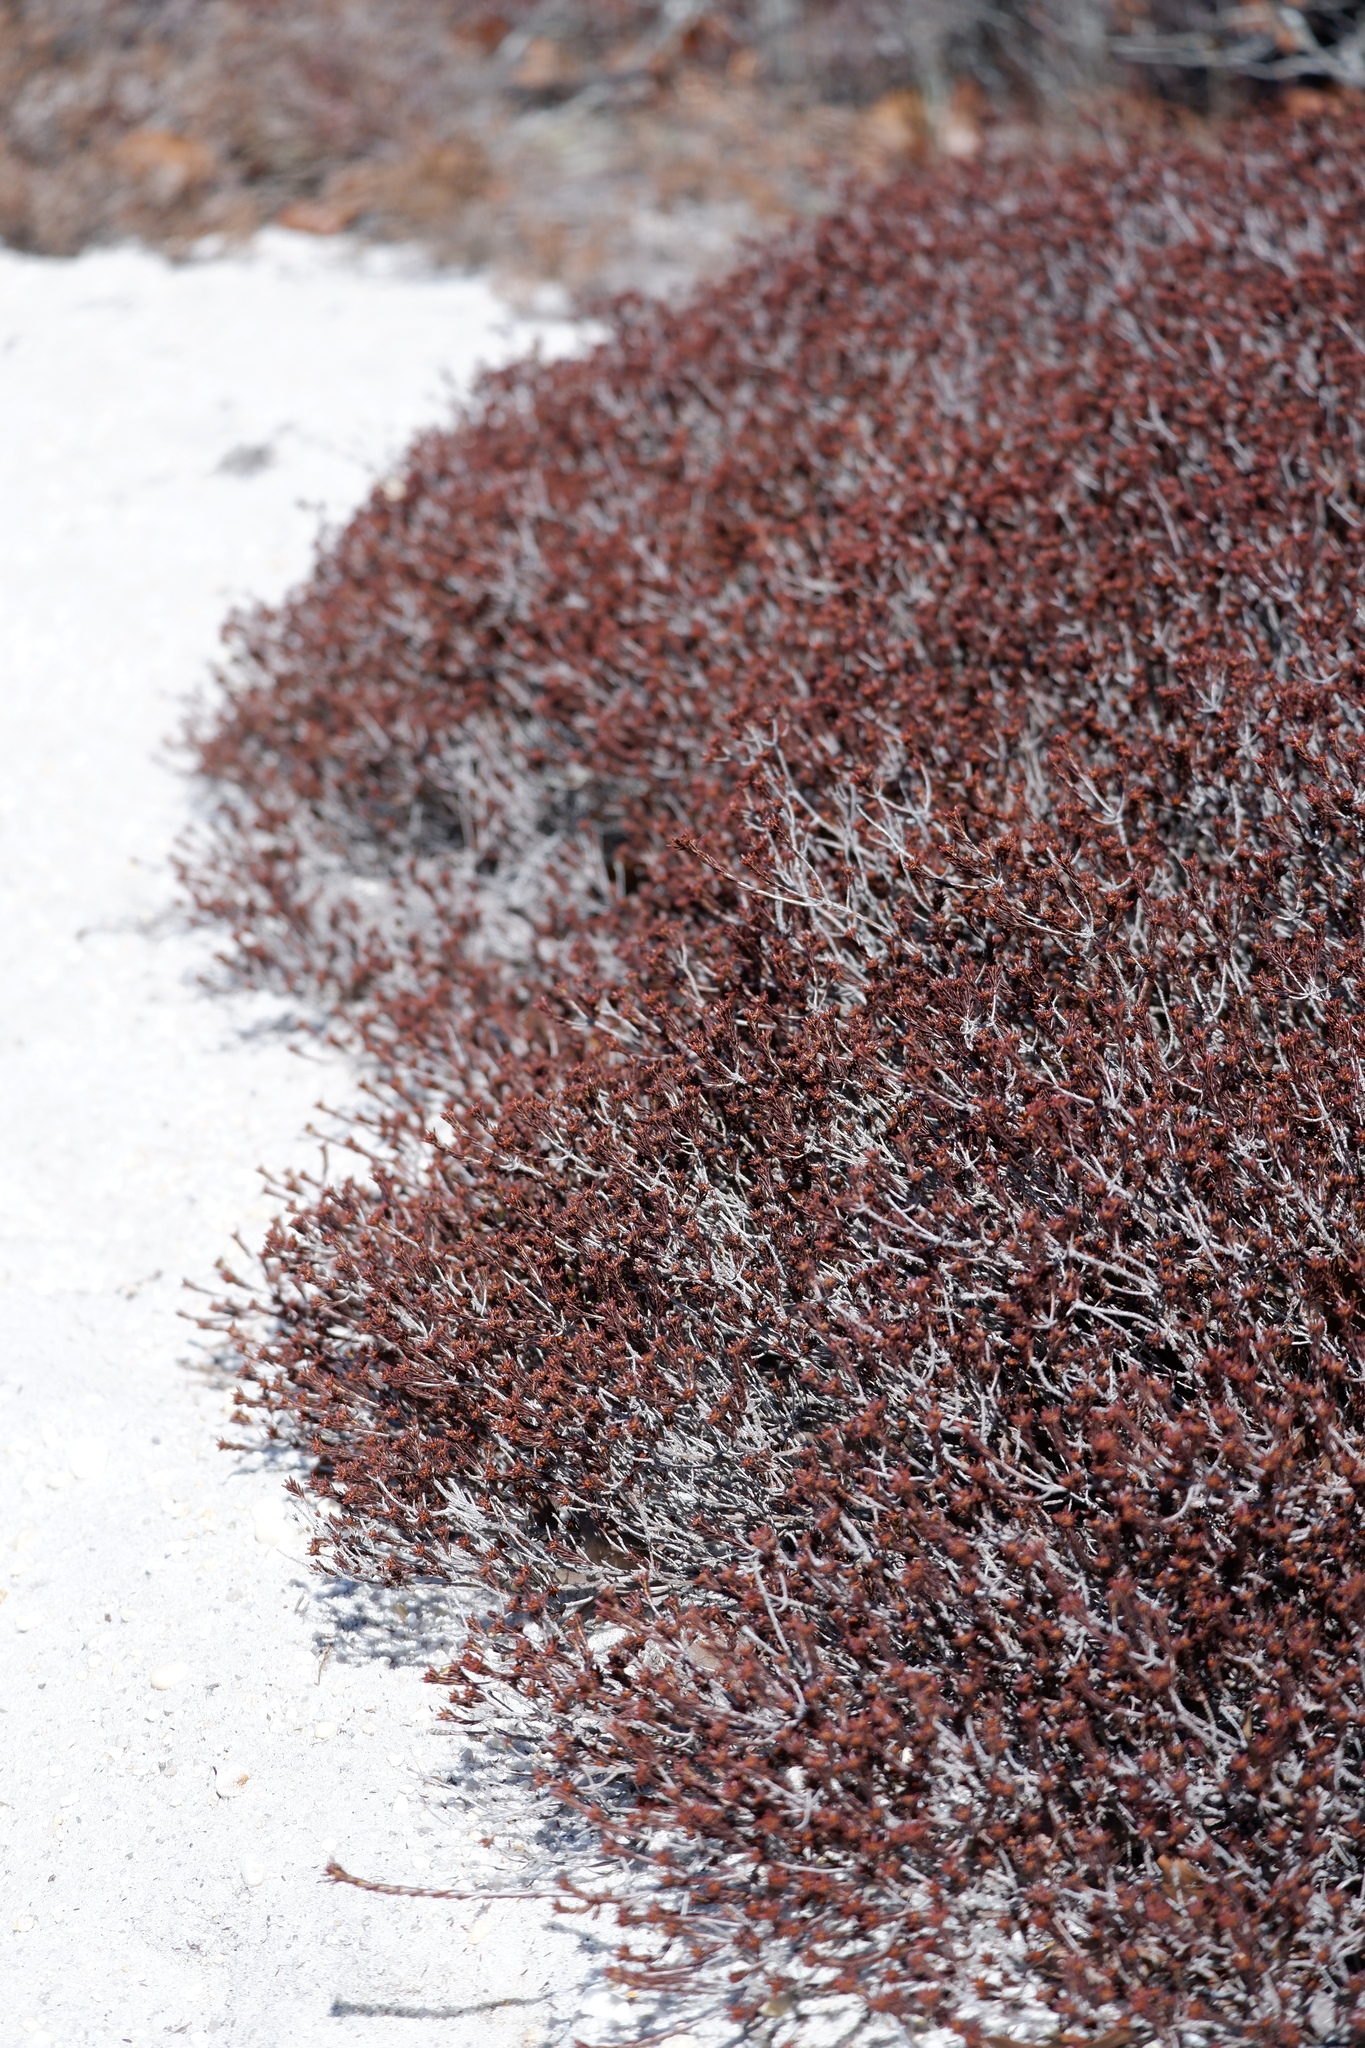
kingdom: Plantae
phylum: Tracheophyta
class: Magnoliopsida
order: Ericales
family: Ericaceae
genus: Corema
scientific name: Corema conradii
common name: Broom-crowberry
